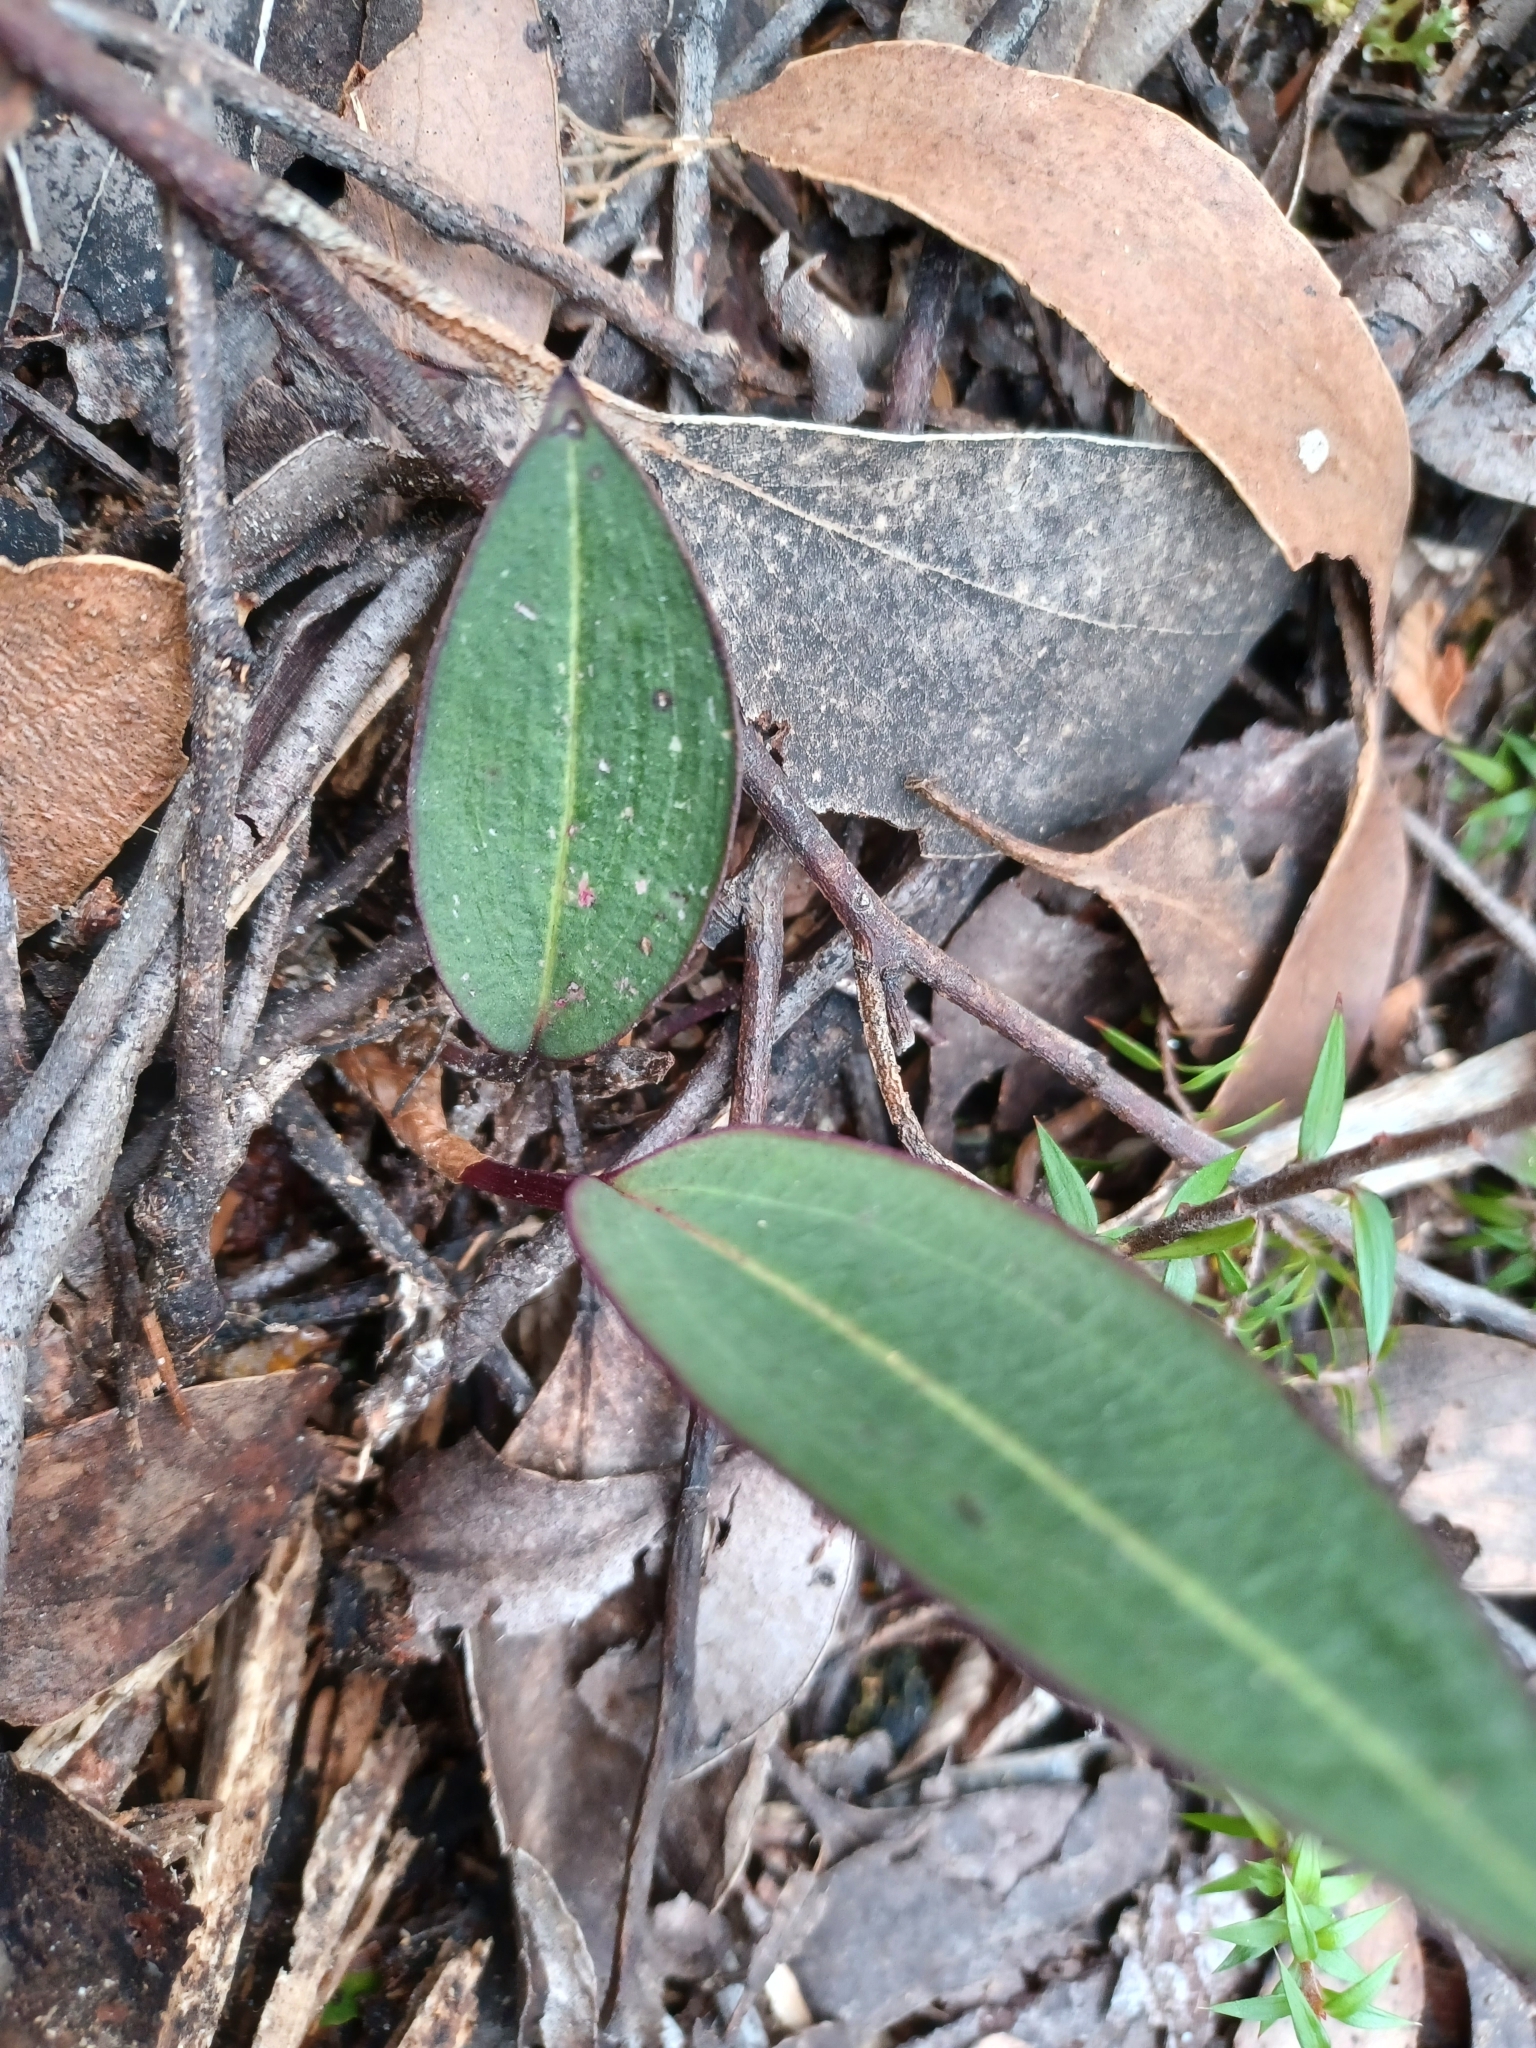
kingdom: Plantae
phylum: Tracheophyta
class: Liliopsida
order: Asparagales
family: Orchidaceae
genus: Cryptostylis
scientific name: Cryptostylis leptochila
